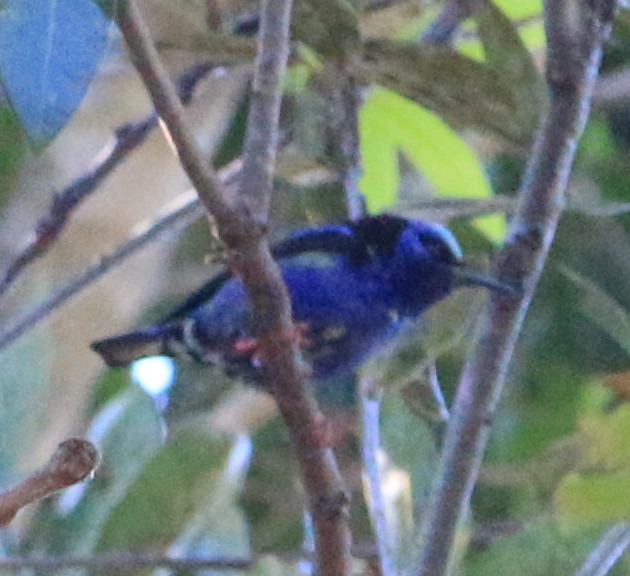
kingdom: Animalia
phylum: Chordata
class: Aves
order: Passeriformes
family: Thraupidae
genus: Cyanerpes
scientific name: Cyanerpes cyaneus
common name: Red-legged honeycreeper
